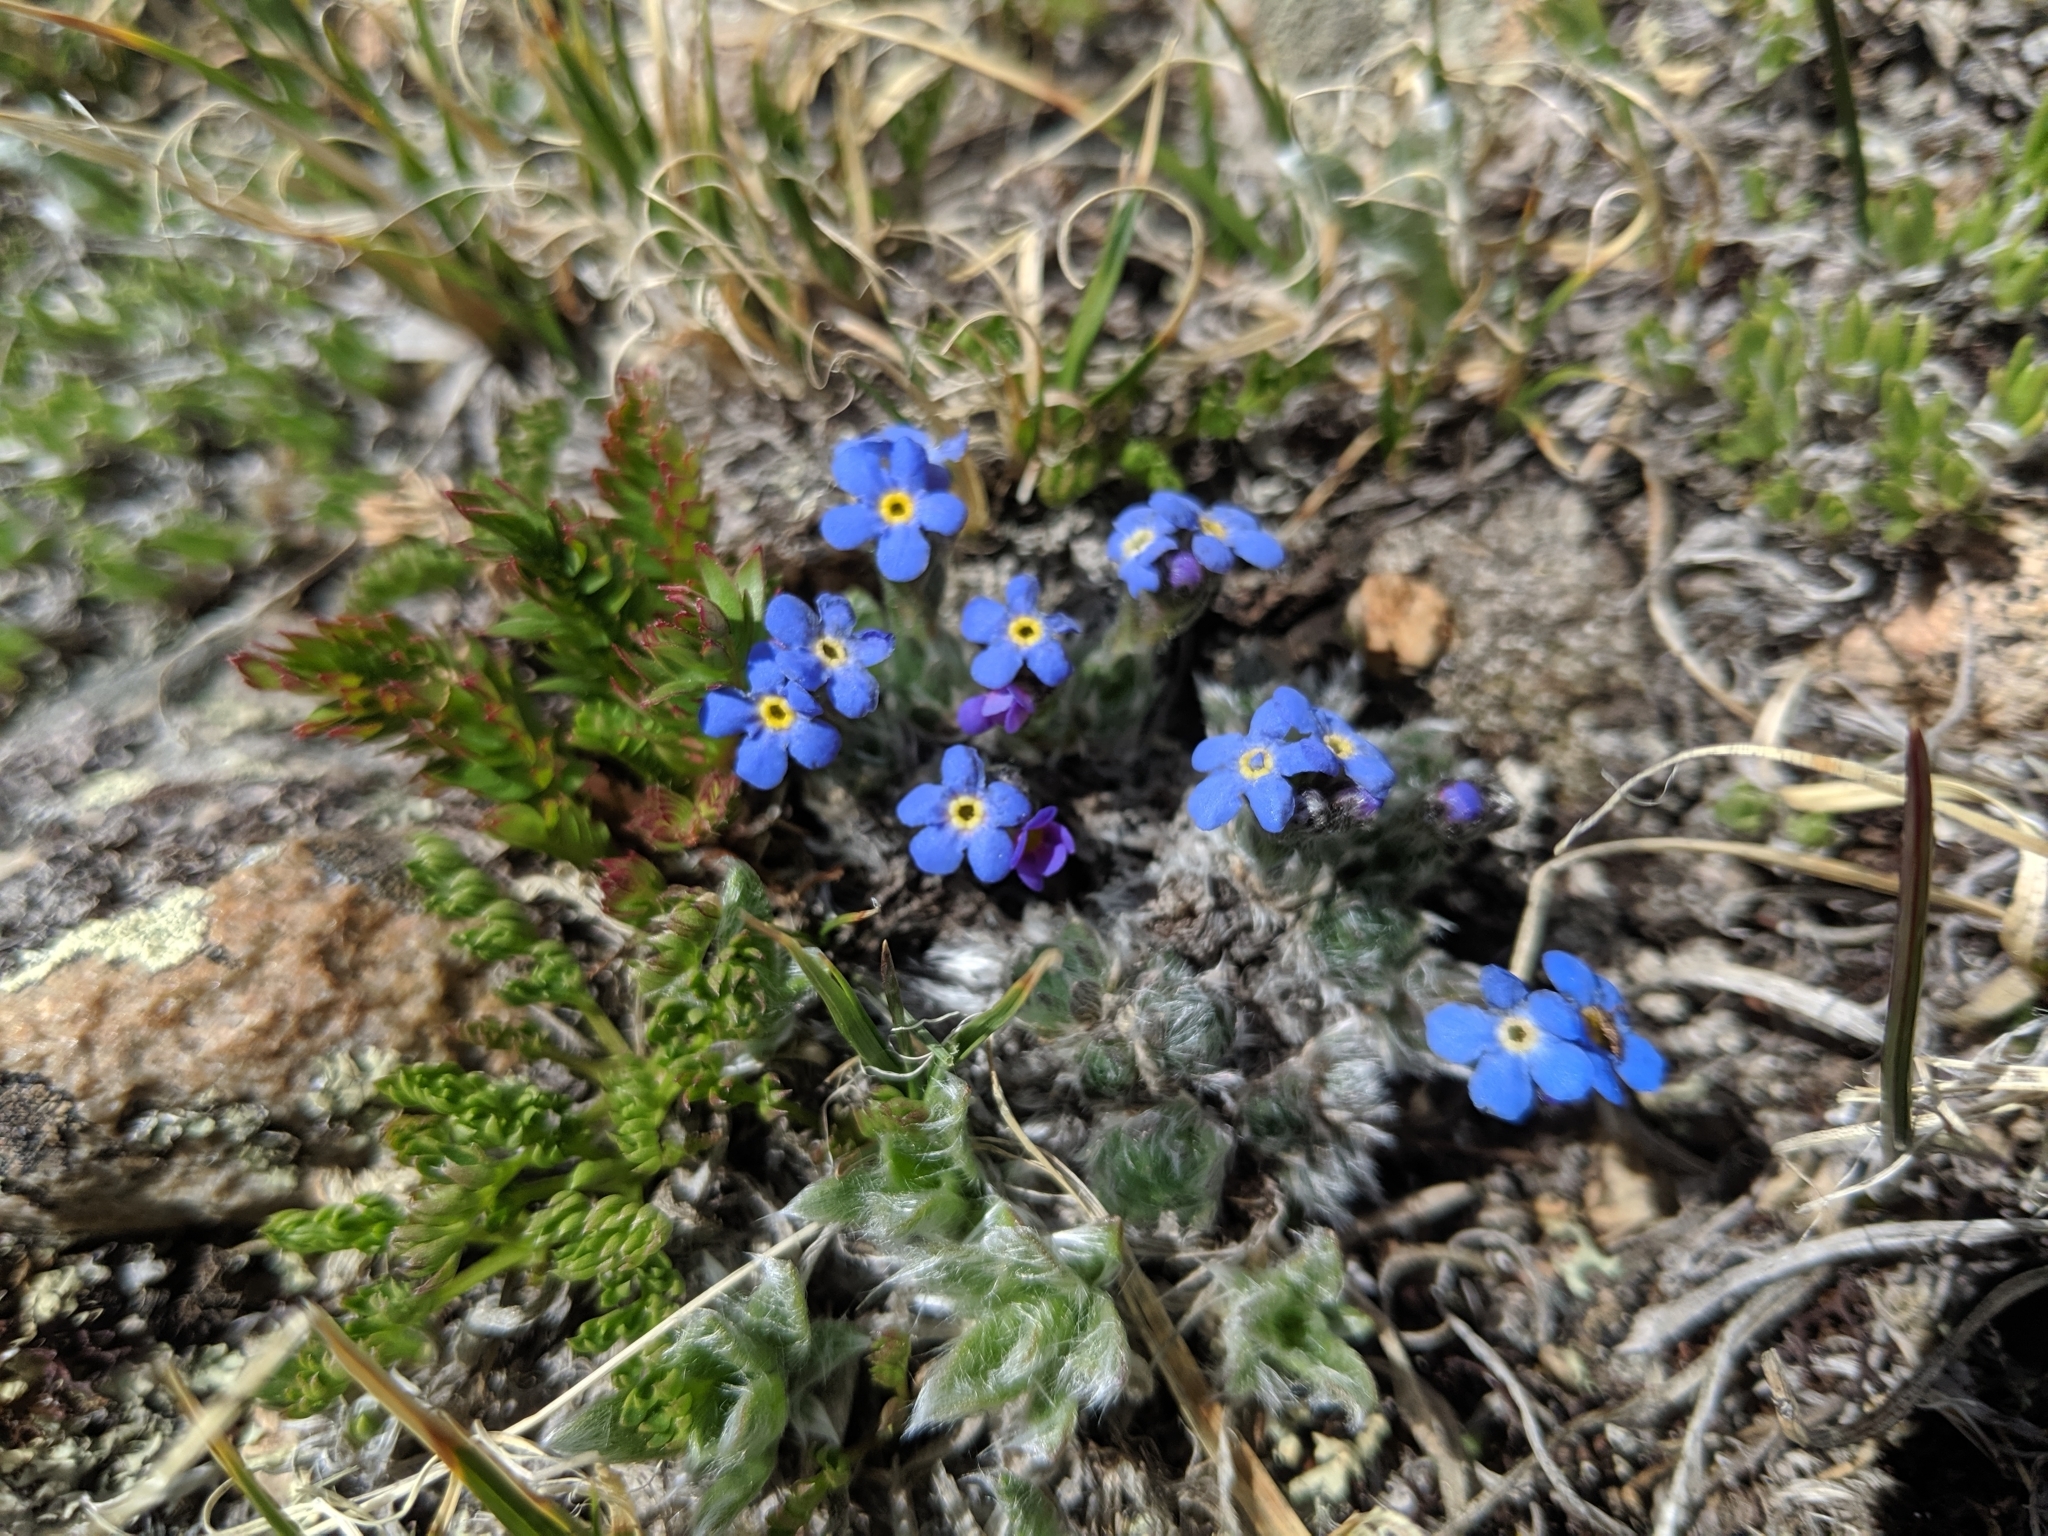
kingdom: Plantae
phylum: Tracheophyta
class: Magnoliopsida
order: Boraginales
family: Boraginaceae
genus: Eritrichium
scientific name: Eritrichium argenteum
